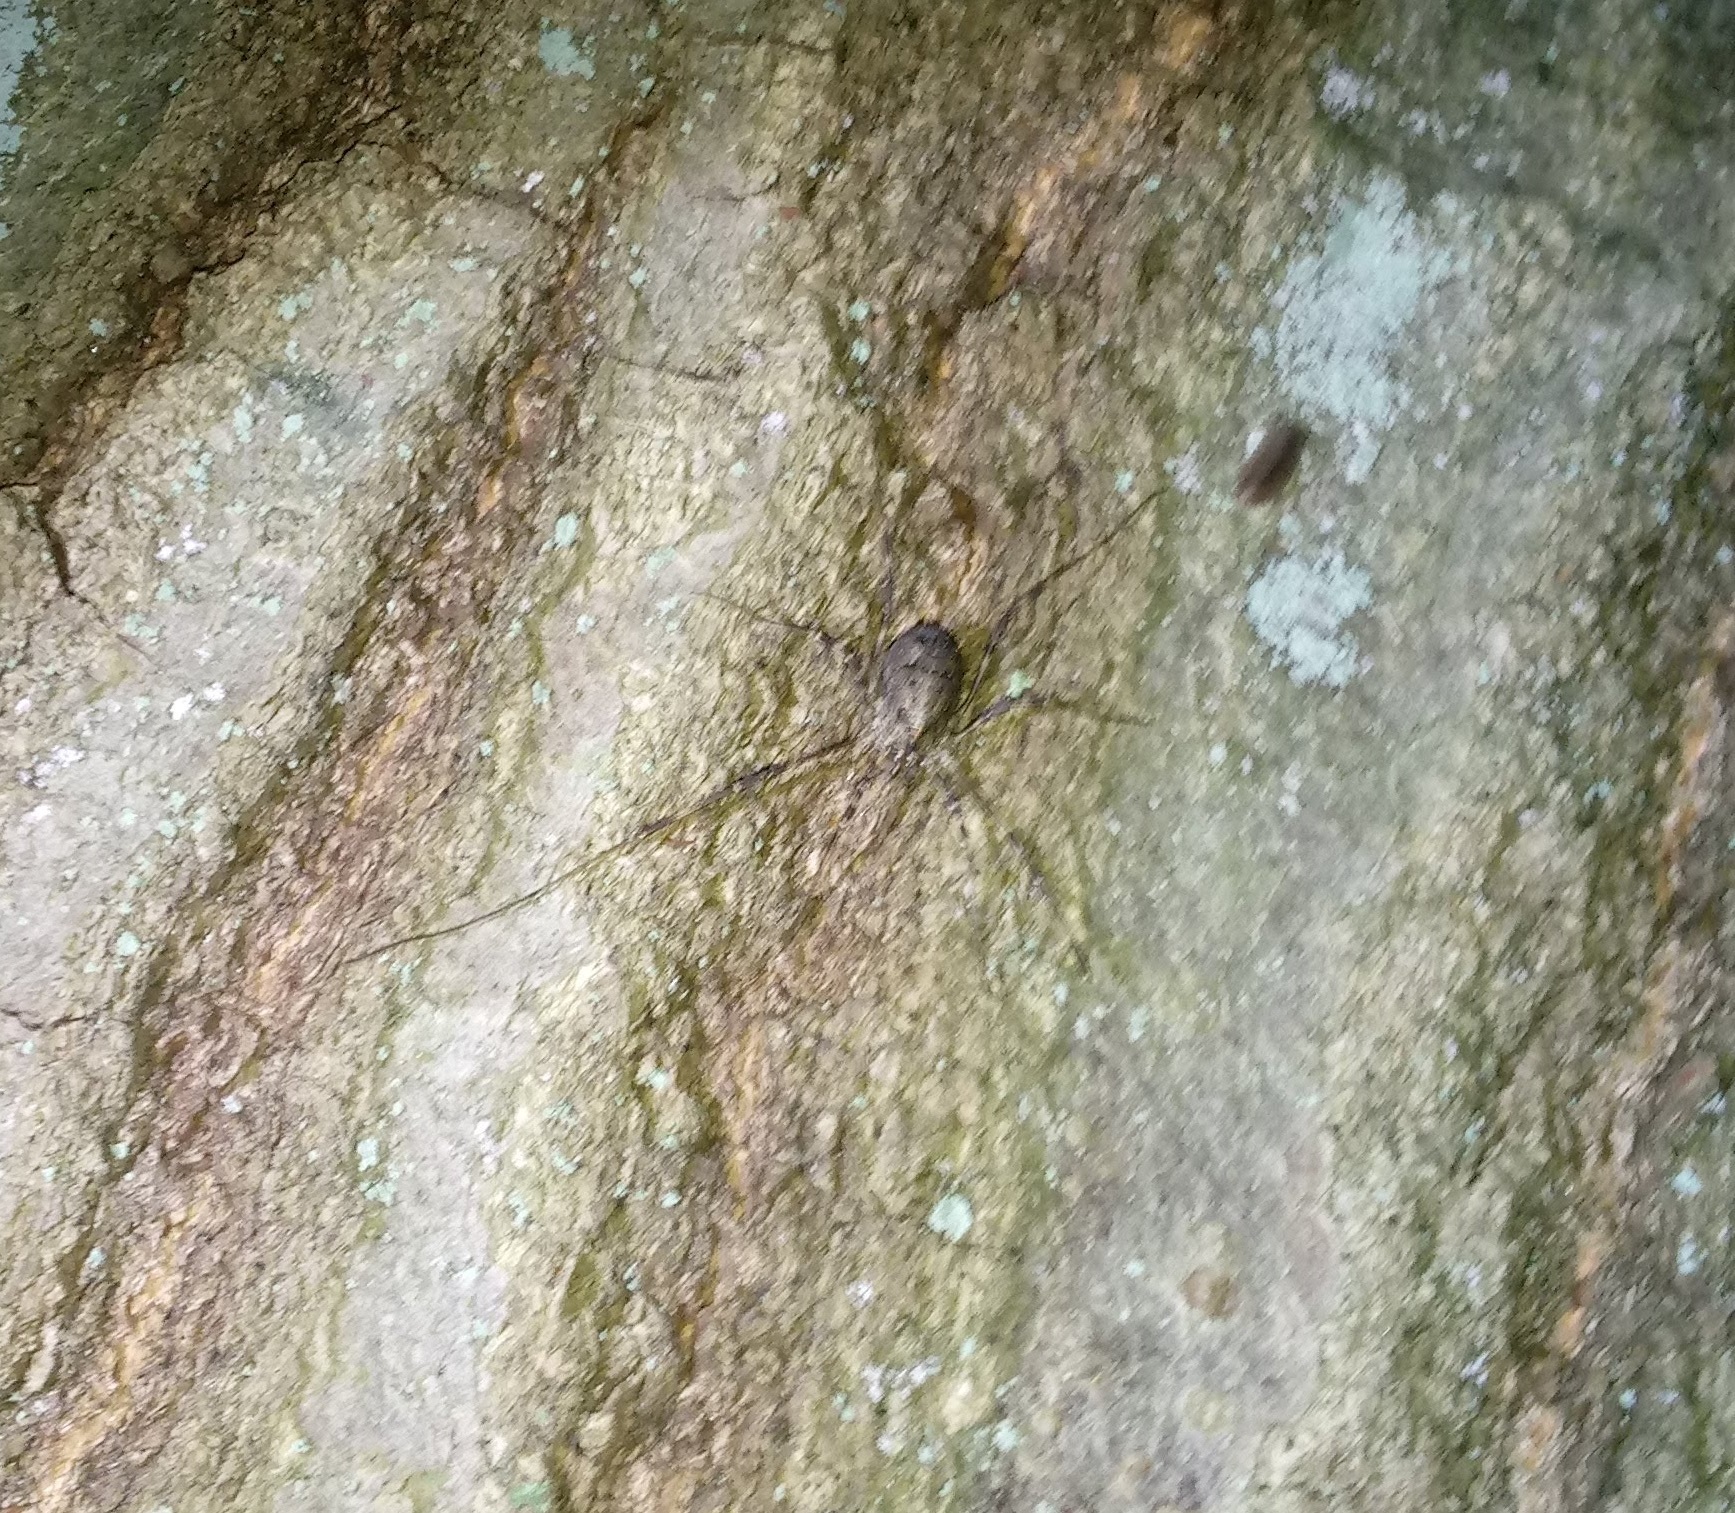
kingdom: Animalia
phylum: Arthropoda
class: Arachnida
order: Opiliones
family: Phalangiidae
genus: Odiellus
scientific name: Odiellus pictus
